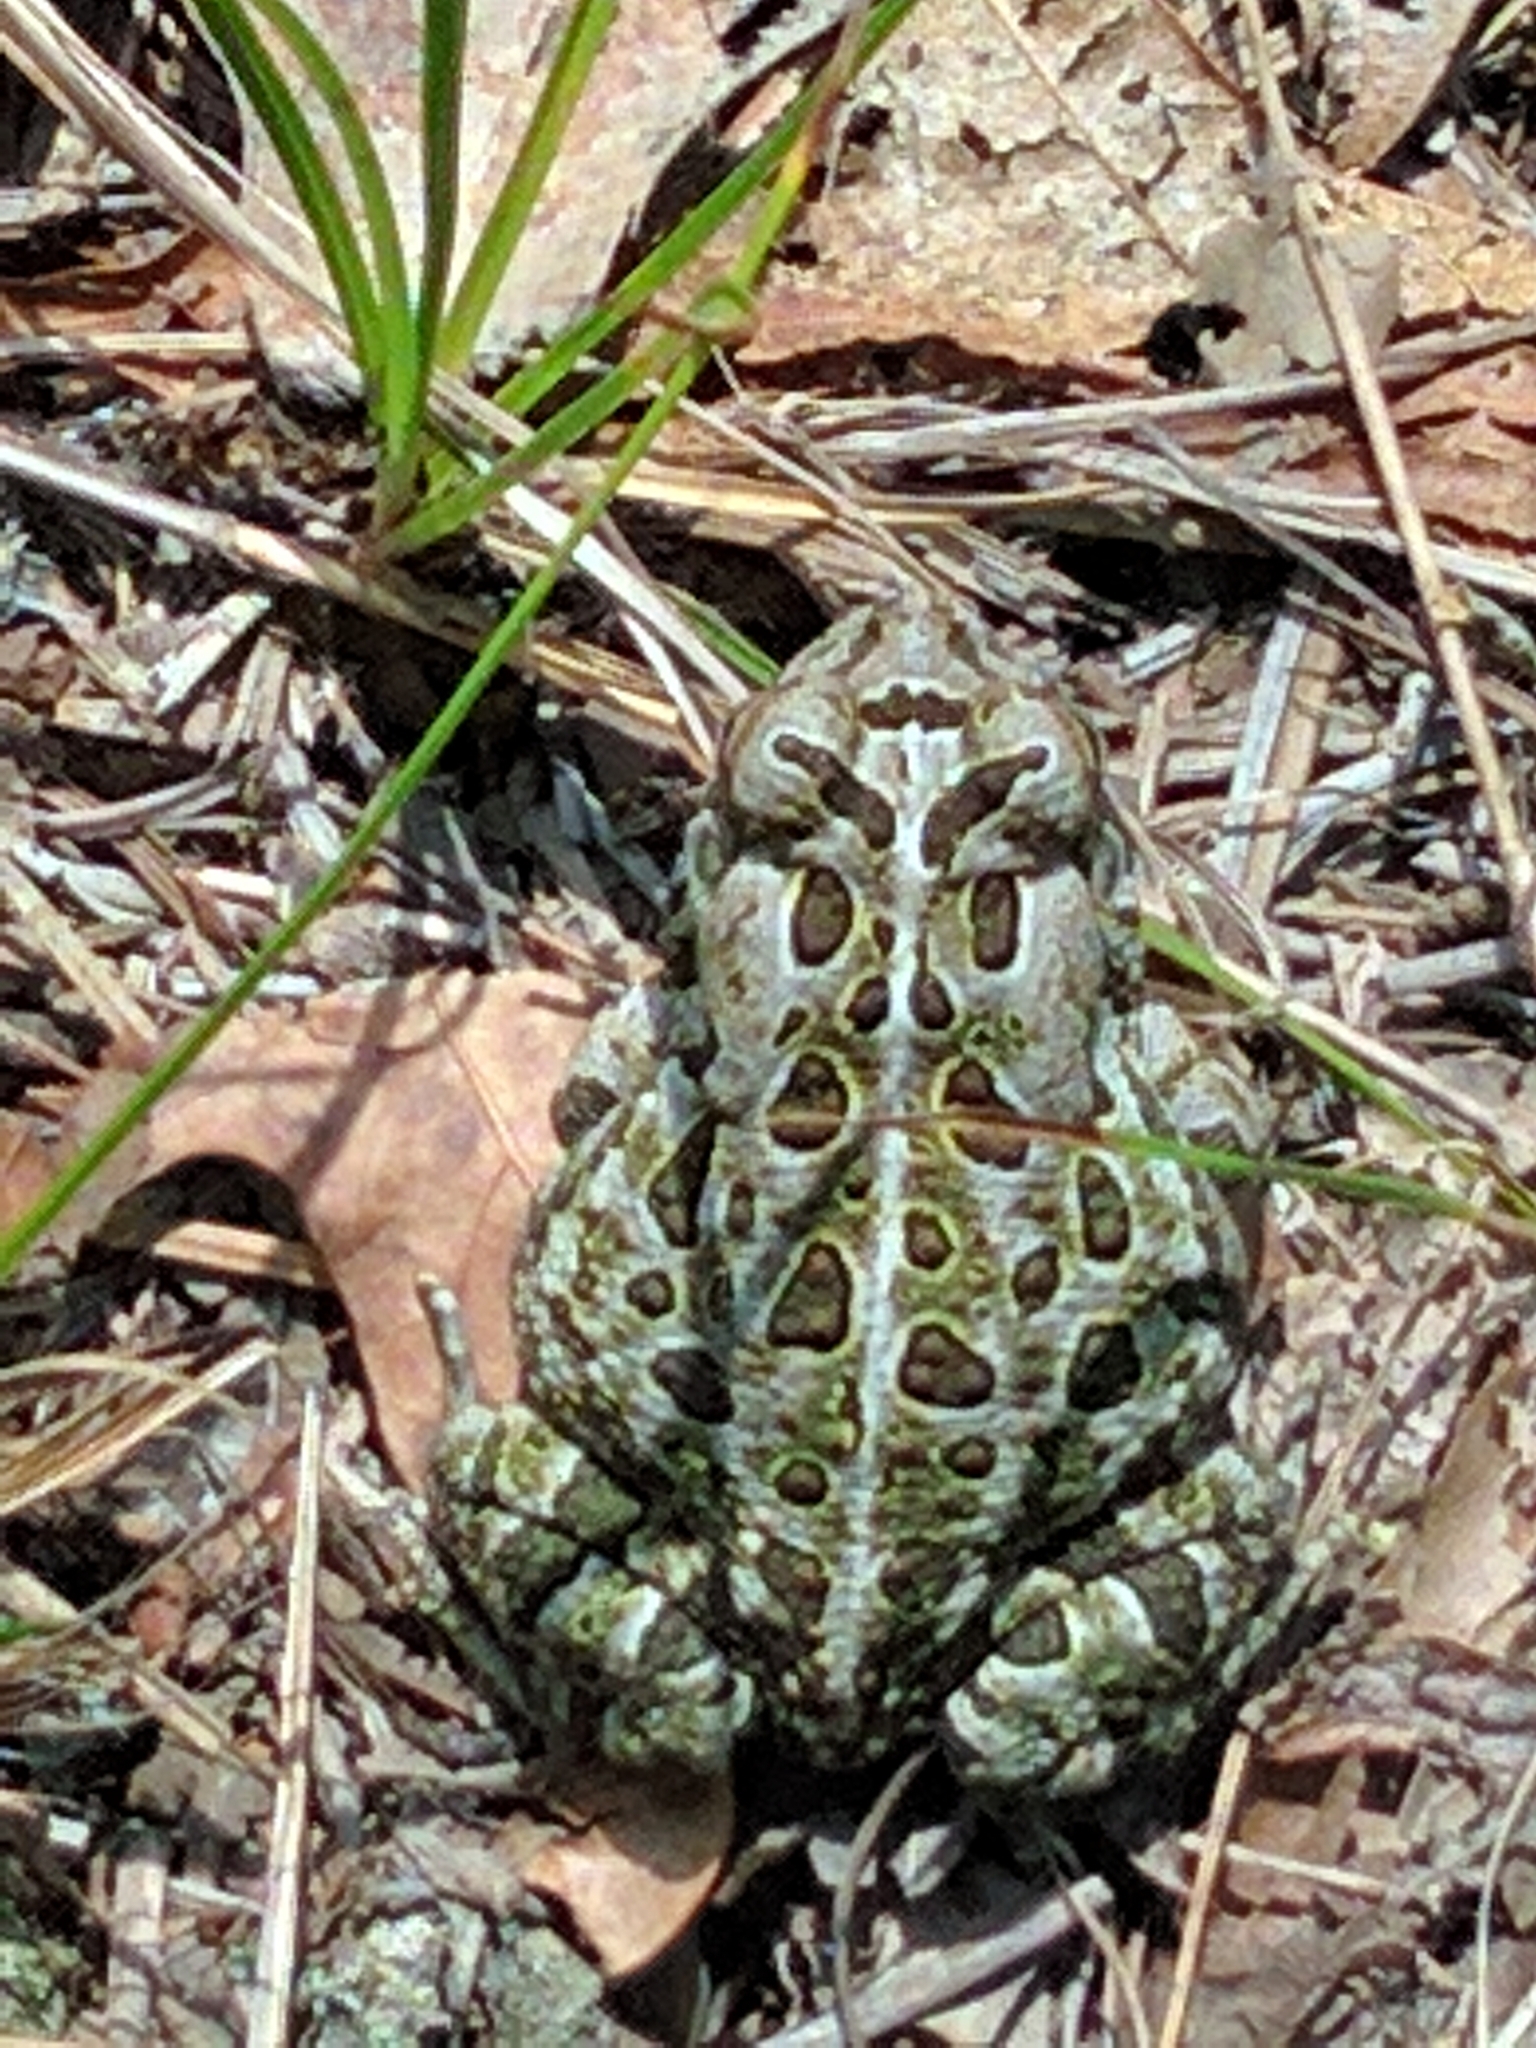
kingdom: Animalia
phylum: Chordata
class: Amphibia
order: Anura
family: Bufonidae
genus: Anaxyrus
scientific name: Anaxyrus fowleri
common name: Fowler's toad
